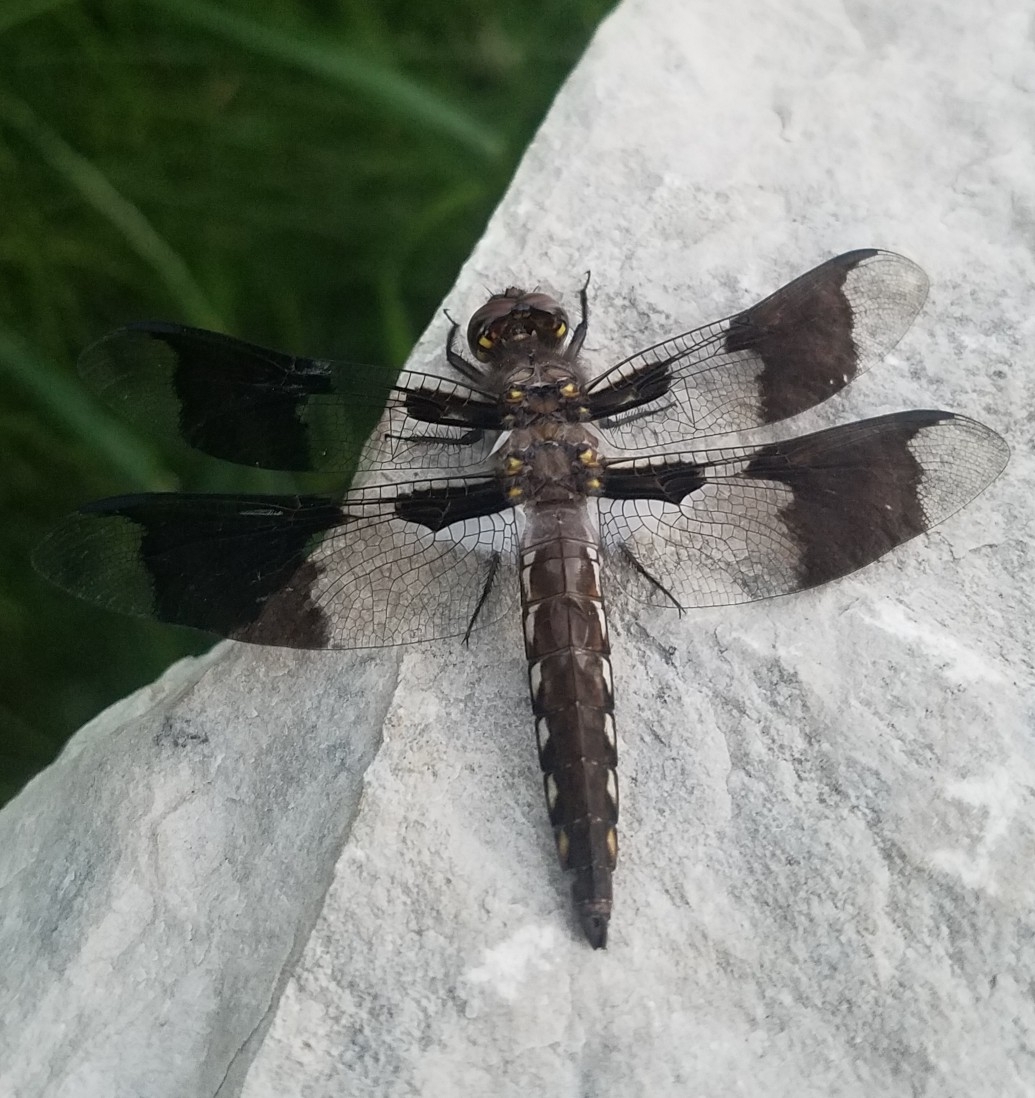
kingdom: Animalia
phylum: Arthropoda
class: Insecta
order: Odonata
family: Libellulidae
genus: Plathemis
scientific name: Plathemis lydia
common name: Common whitetail
